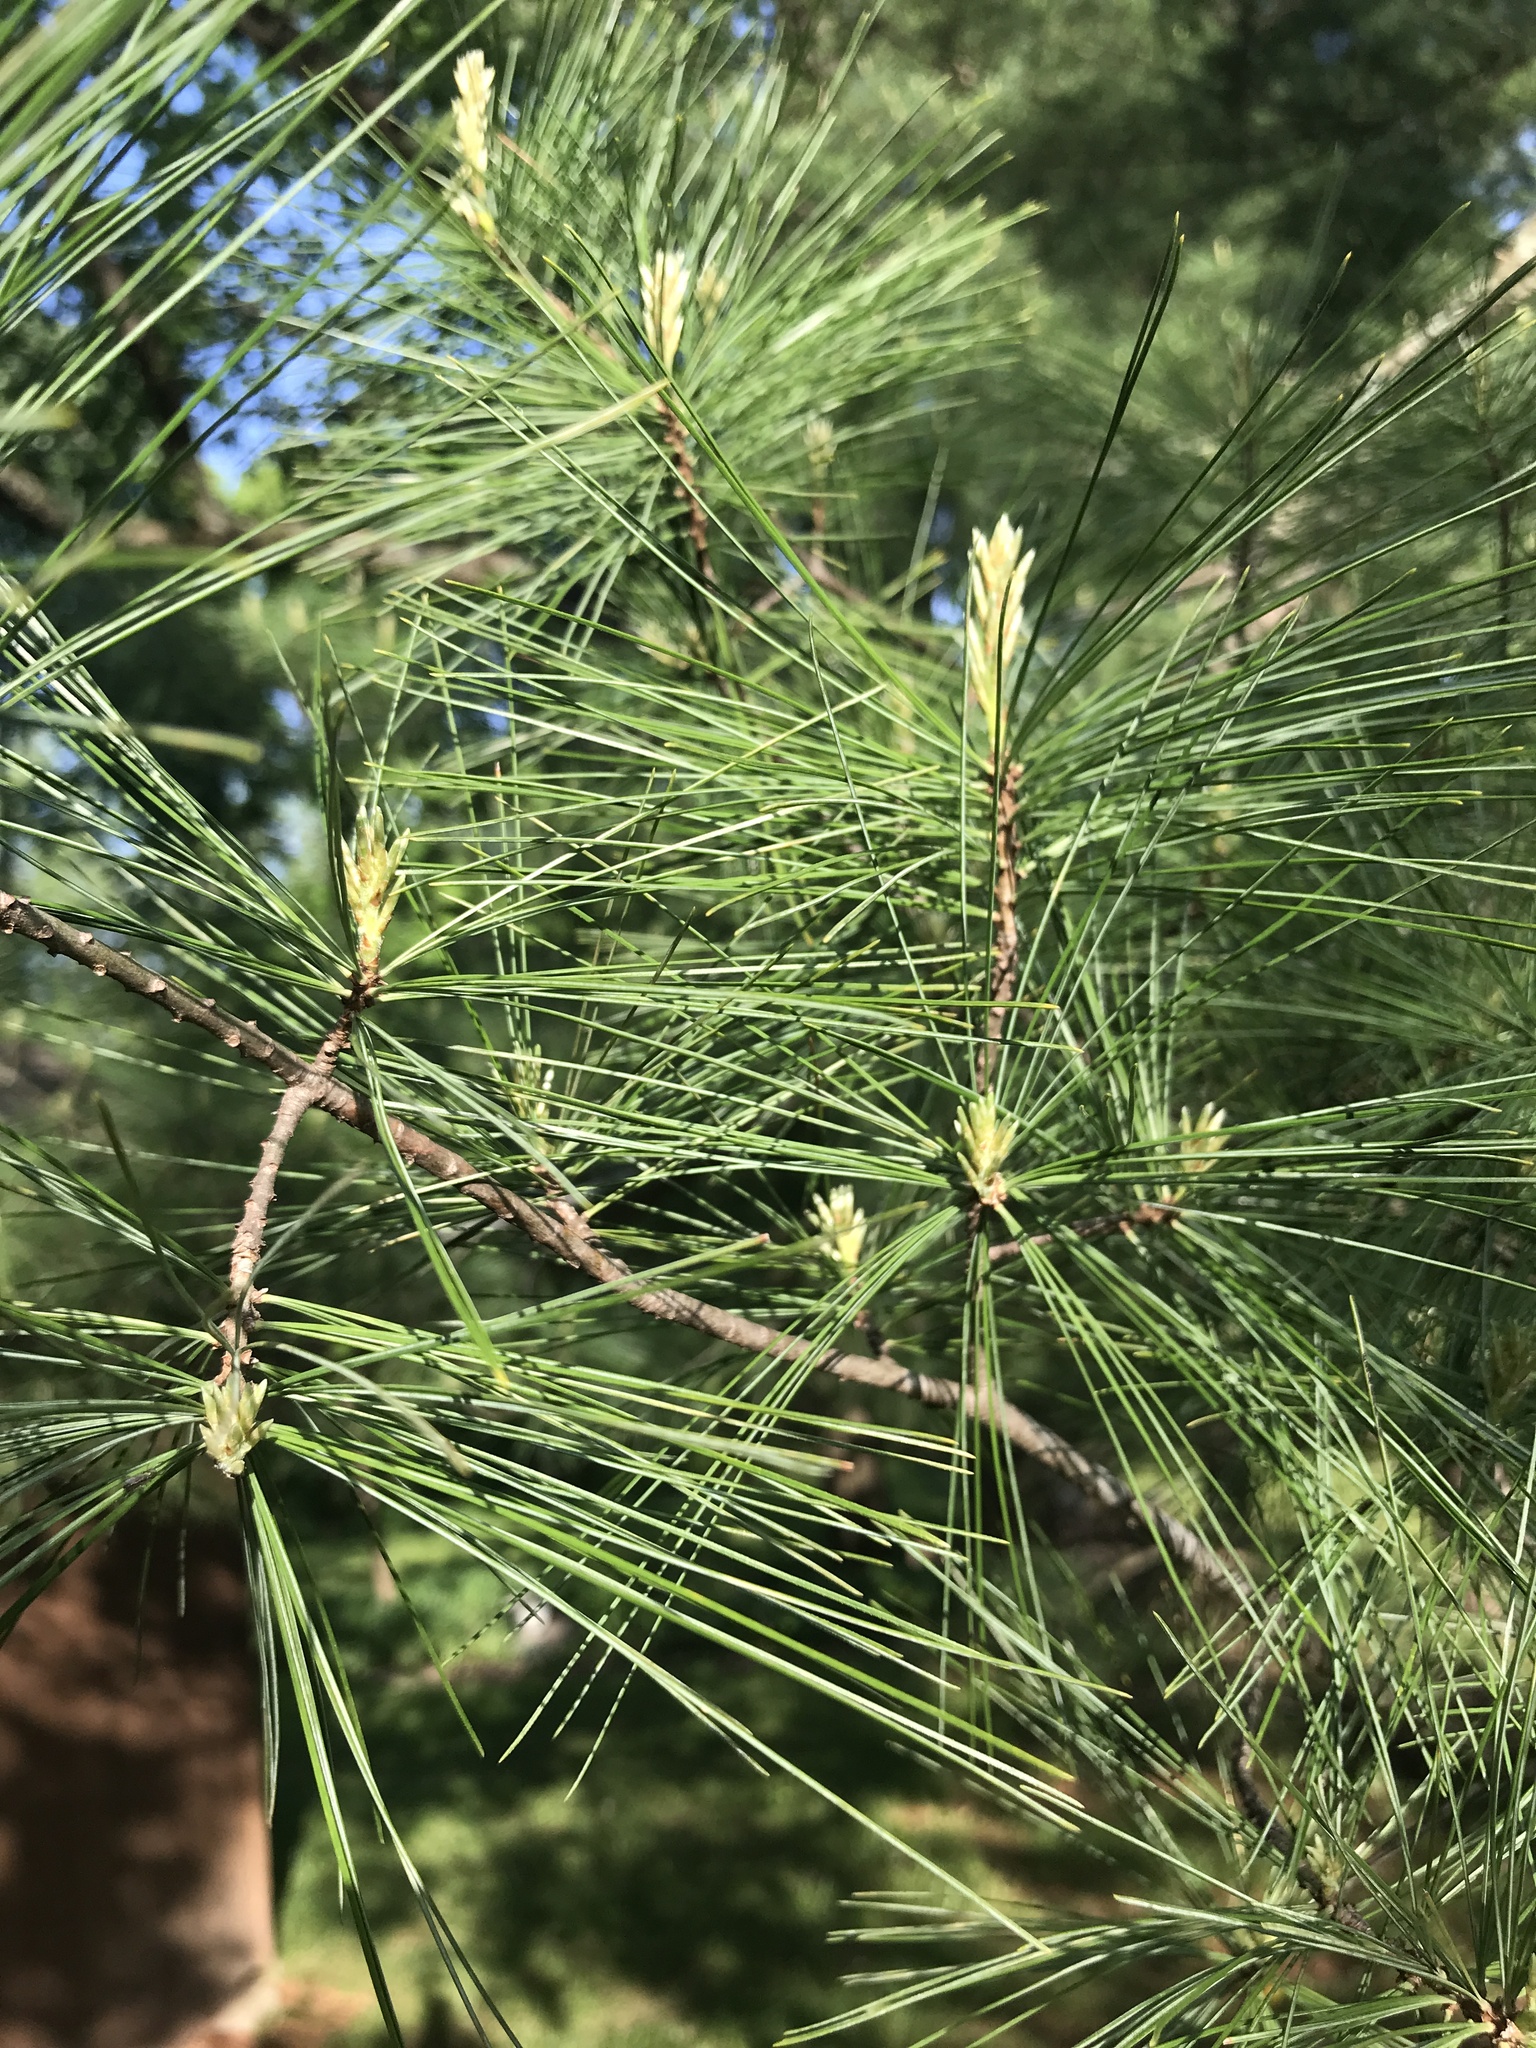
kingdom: Plantae
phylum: Tracheophyta
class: Pinopsida
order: Pinales
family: Pinaceae
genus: Pinus
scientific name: Pinus strobus
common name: Weymouth pine
